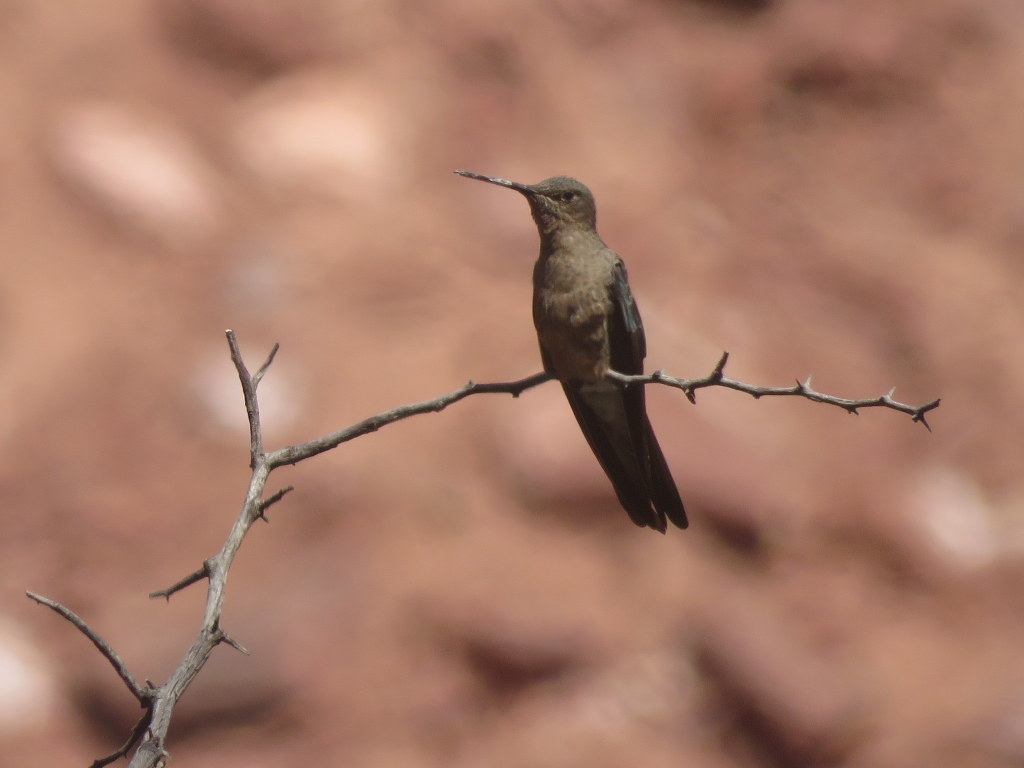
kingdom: Animalia
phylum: Chordata
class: Aves
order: Apodiformes
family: Trochilidae
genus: Patagona
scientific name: Patagona gigas
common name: Giant hummingbird
